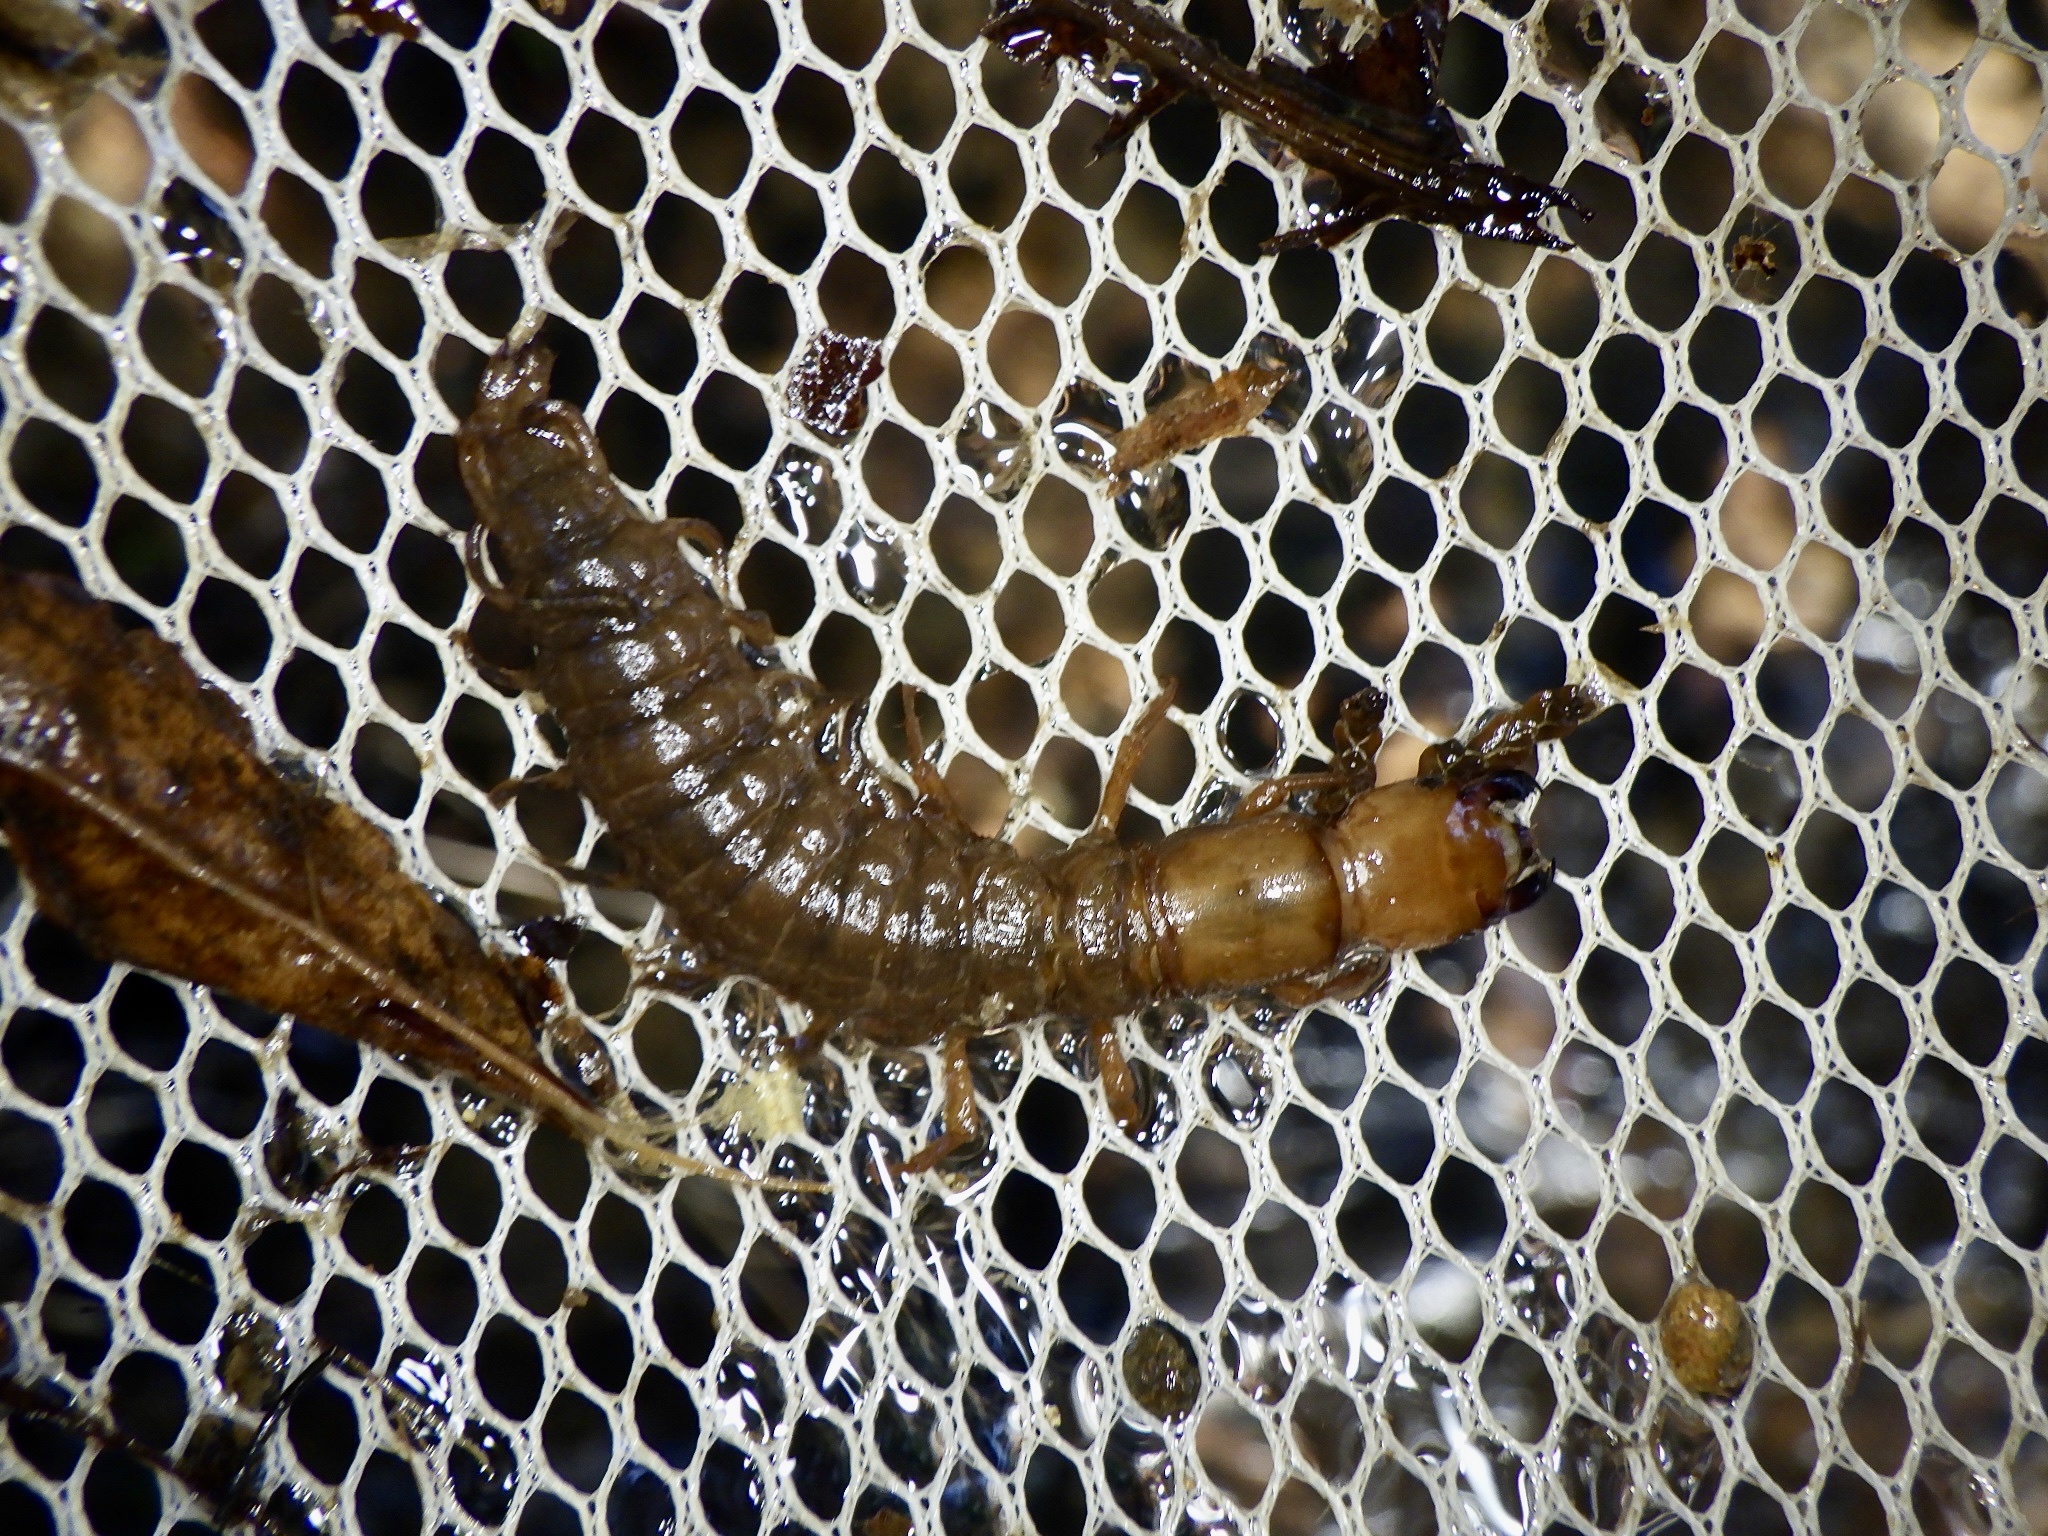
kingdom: Animalia
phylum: Arthropoda
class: Insecta
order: Megaloptera
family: Corydalidae
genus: Protohermes
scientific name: Protohermes grandis
